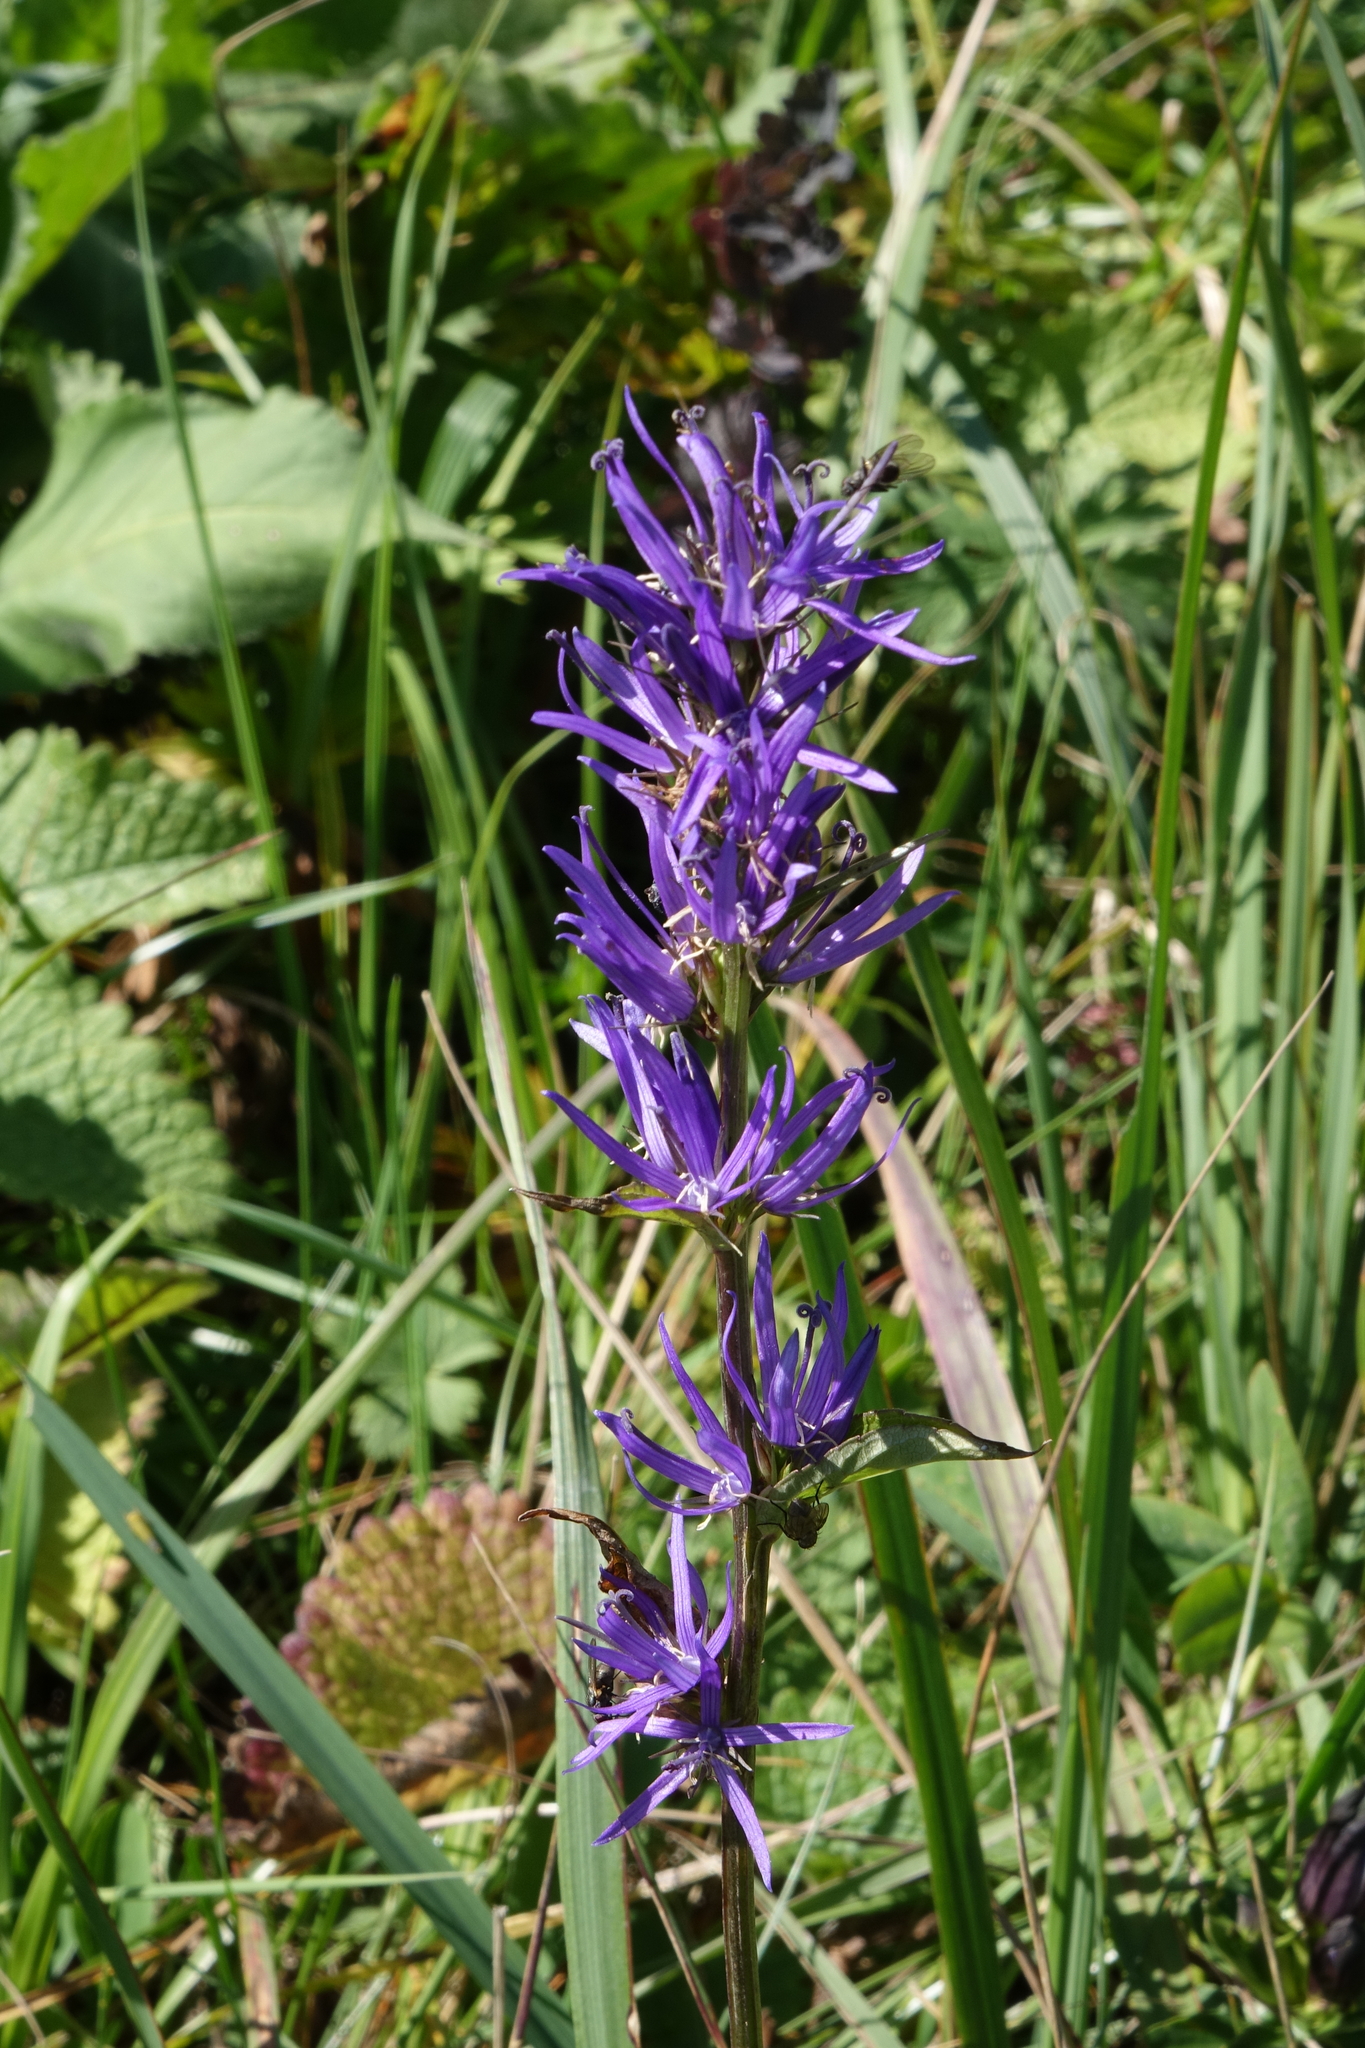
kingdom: Plantae
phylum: Tracheophyta
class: Magnoliopsida
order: Asterales
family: Campanulaceae
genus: Asyneuma
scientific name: Asyneuma campanuloides
